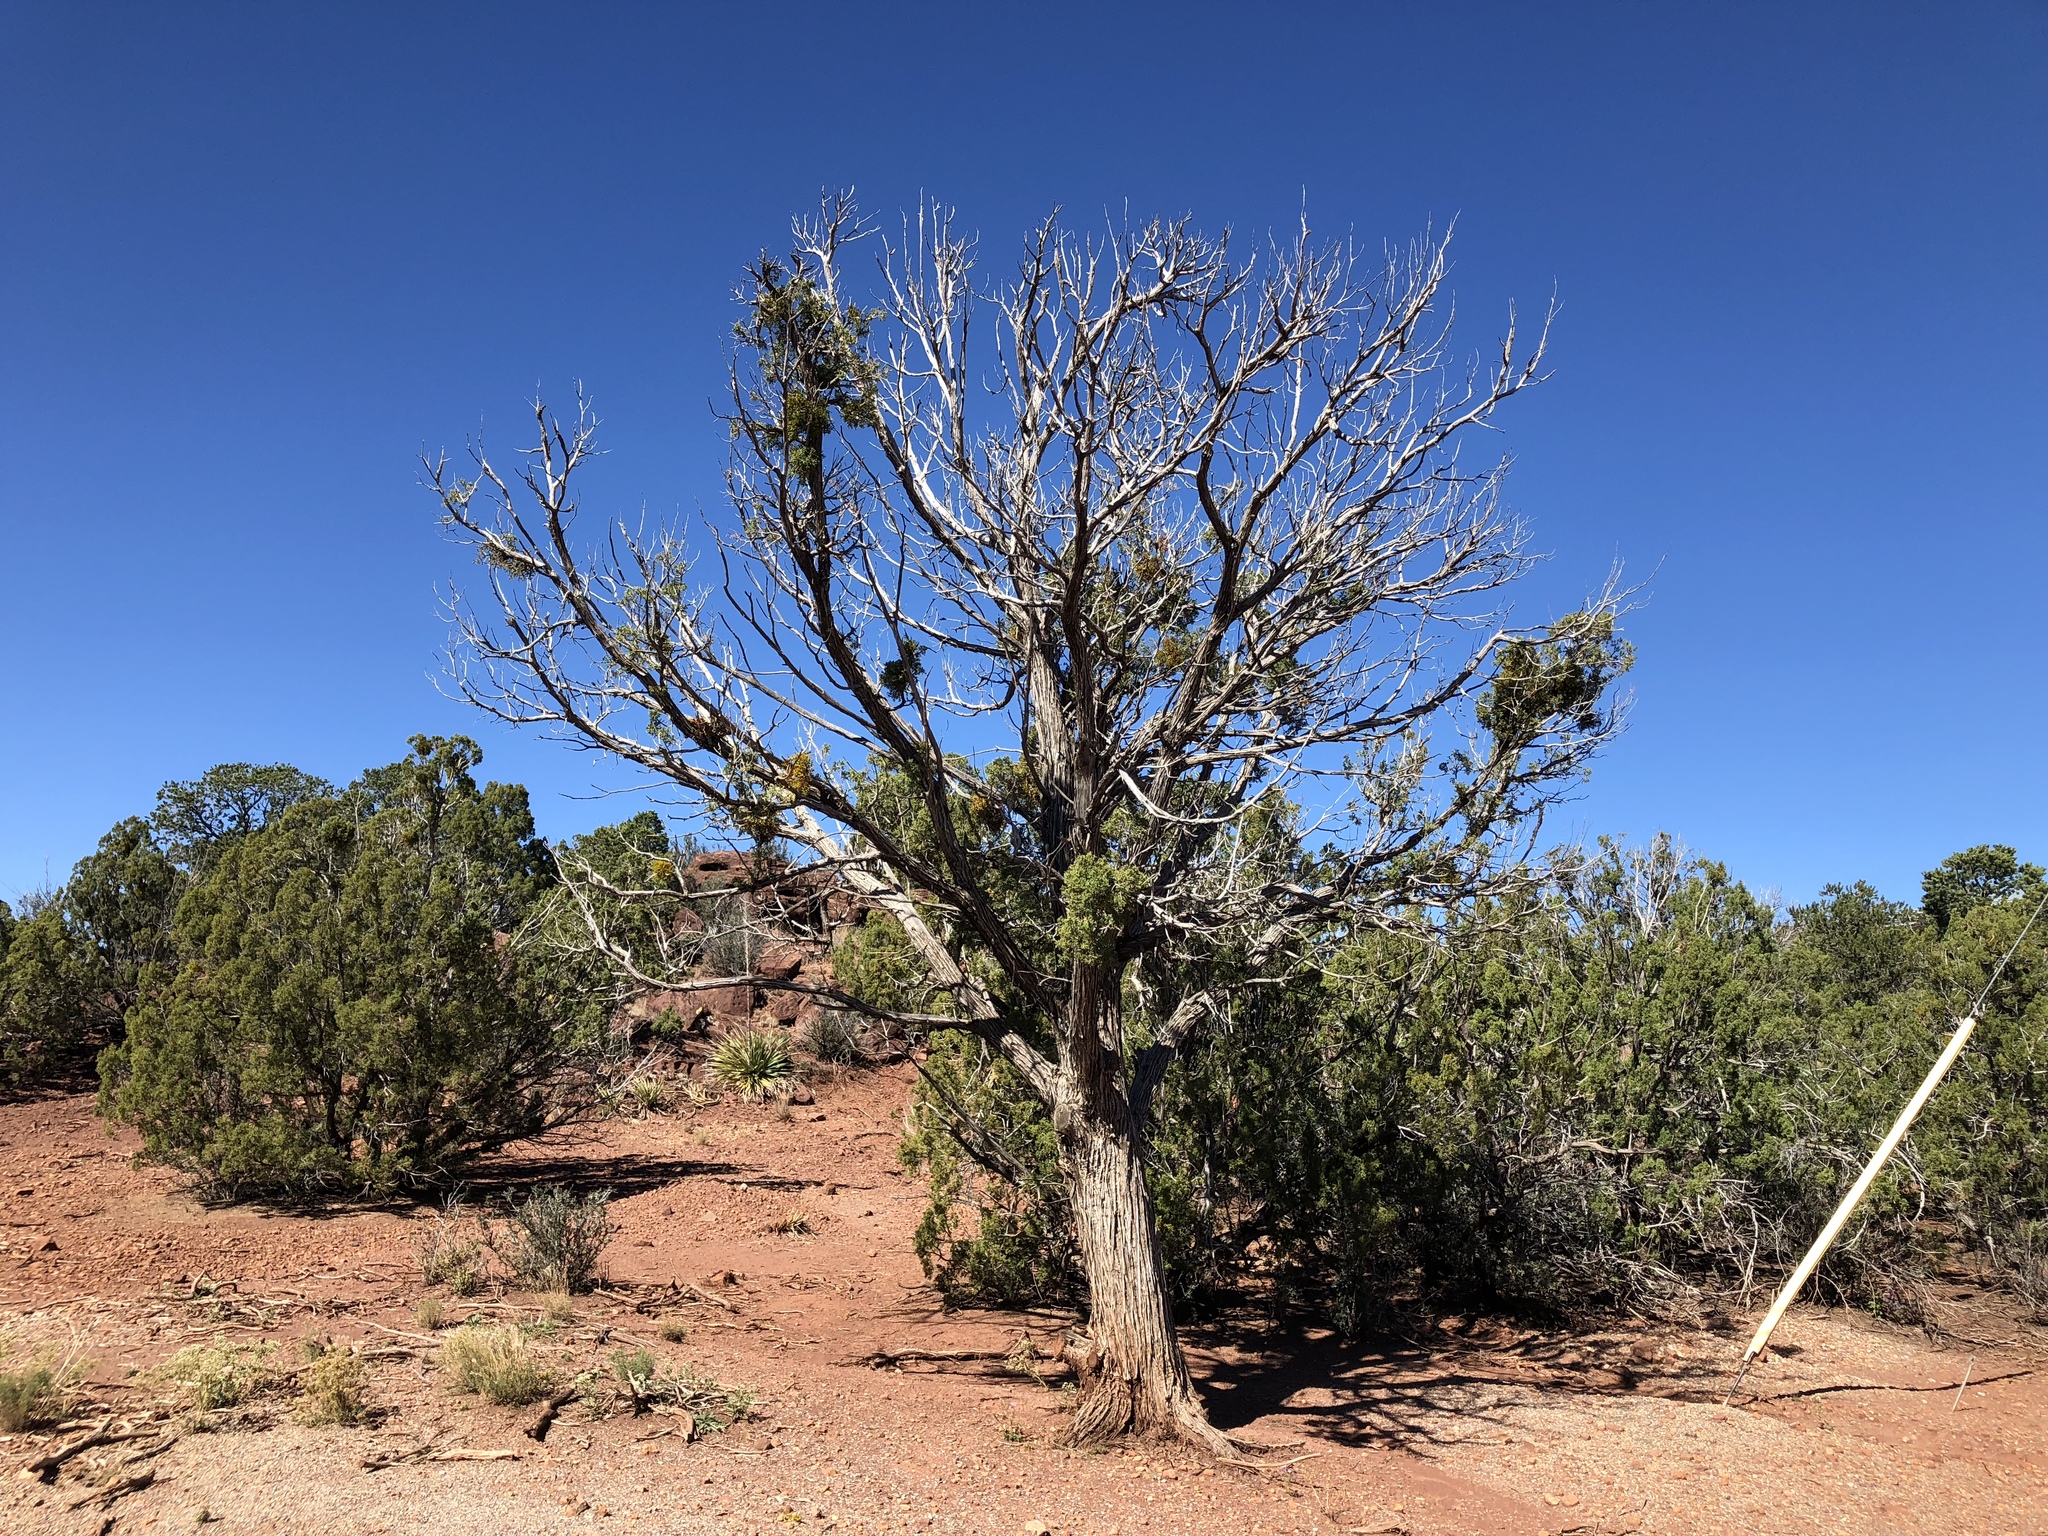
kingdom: Plantae
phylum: Tracheophyta
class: Pinopsida
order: Pinales
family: Cupressaceae
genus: Juniperus
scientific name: Juniperus monosperma
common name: One-seed juniper
